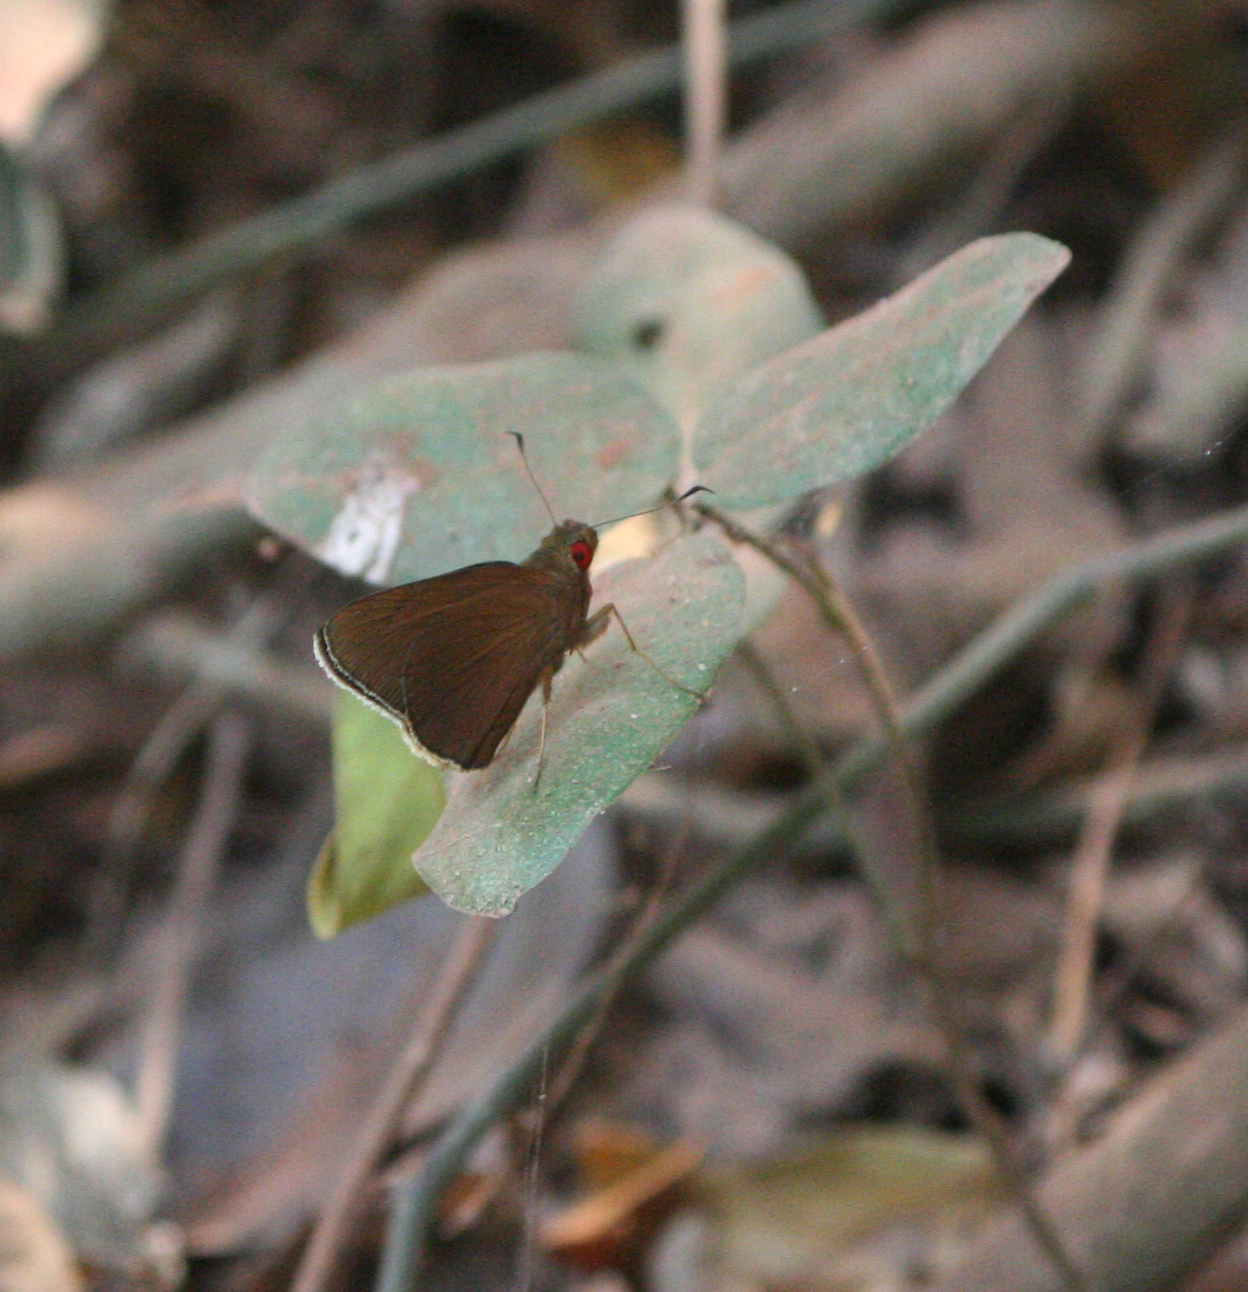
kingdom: Animalia
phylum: Arthropoda
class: Insecta
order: Lepidoptera
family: Hesperiidae
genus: Matapa
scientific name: Matapa aria
